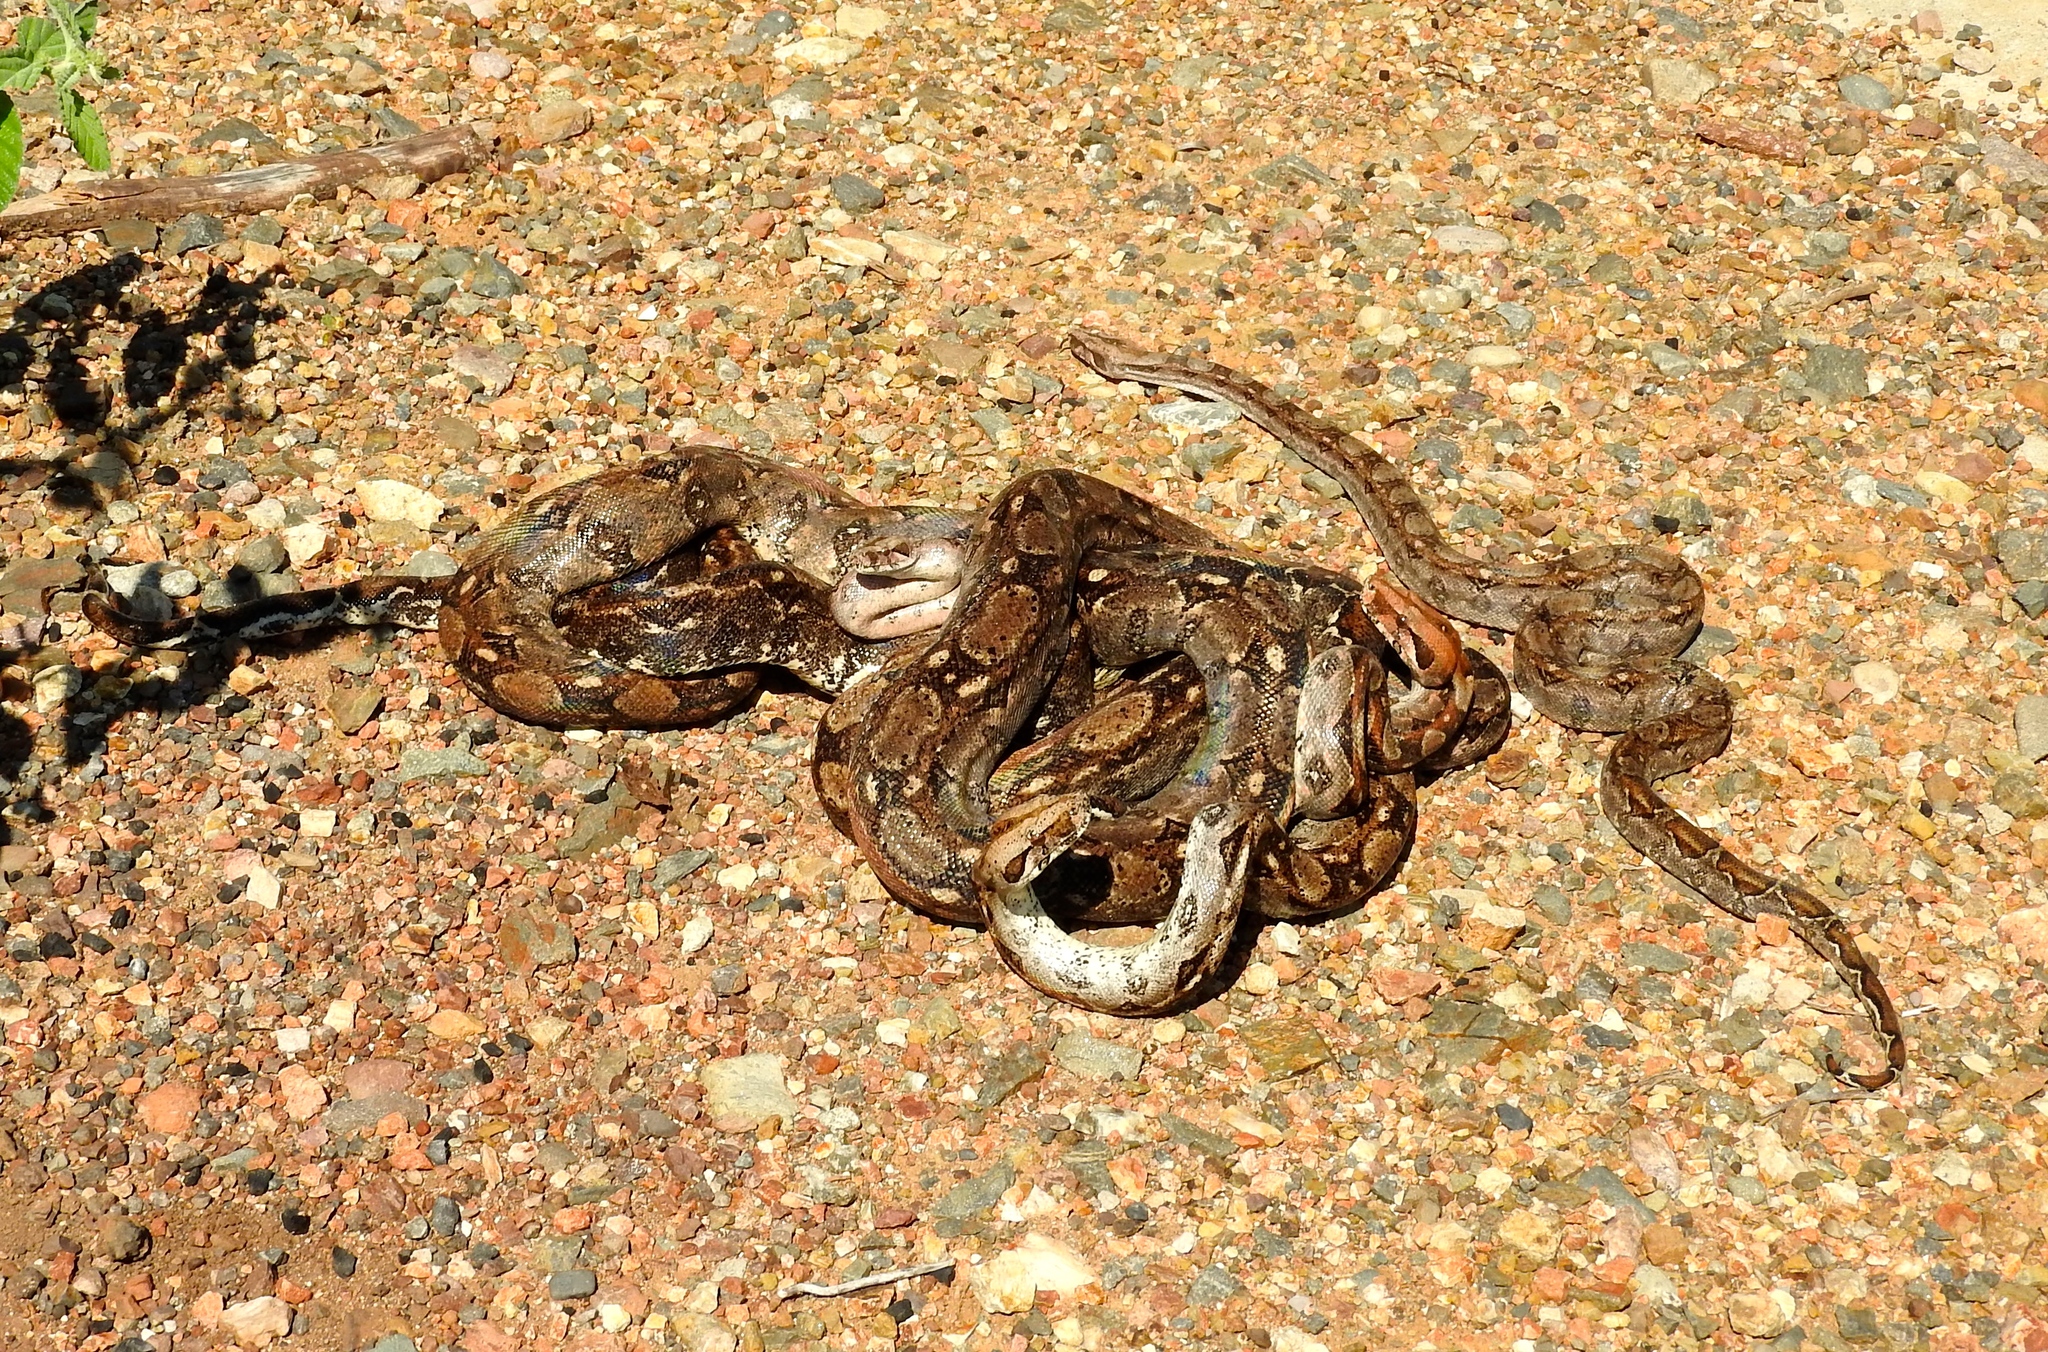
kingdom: Animalia
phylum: Chordata
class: Squamata
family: Boidae
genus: Boa
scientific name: Boa
